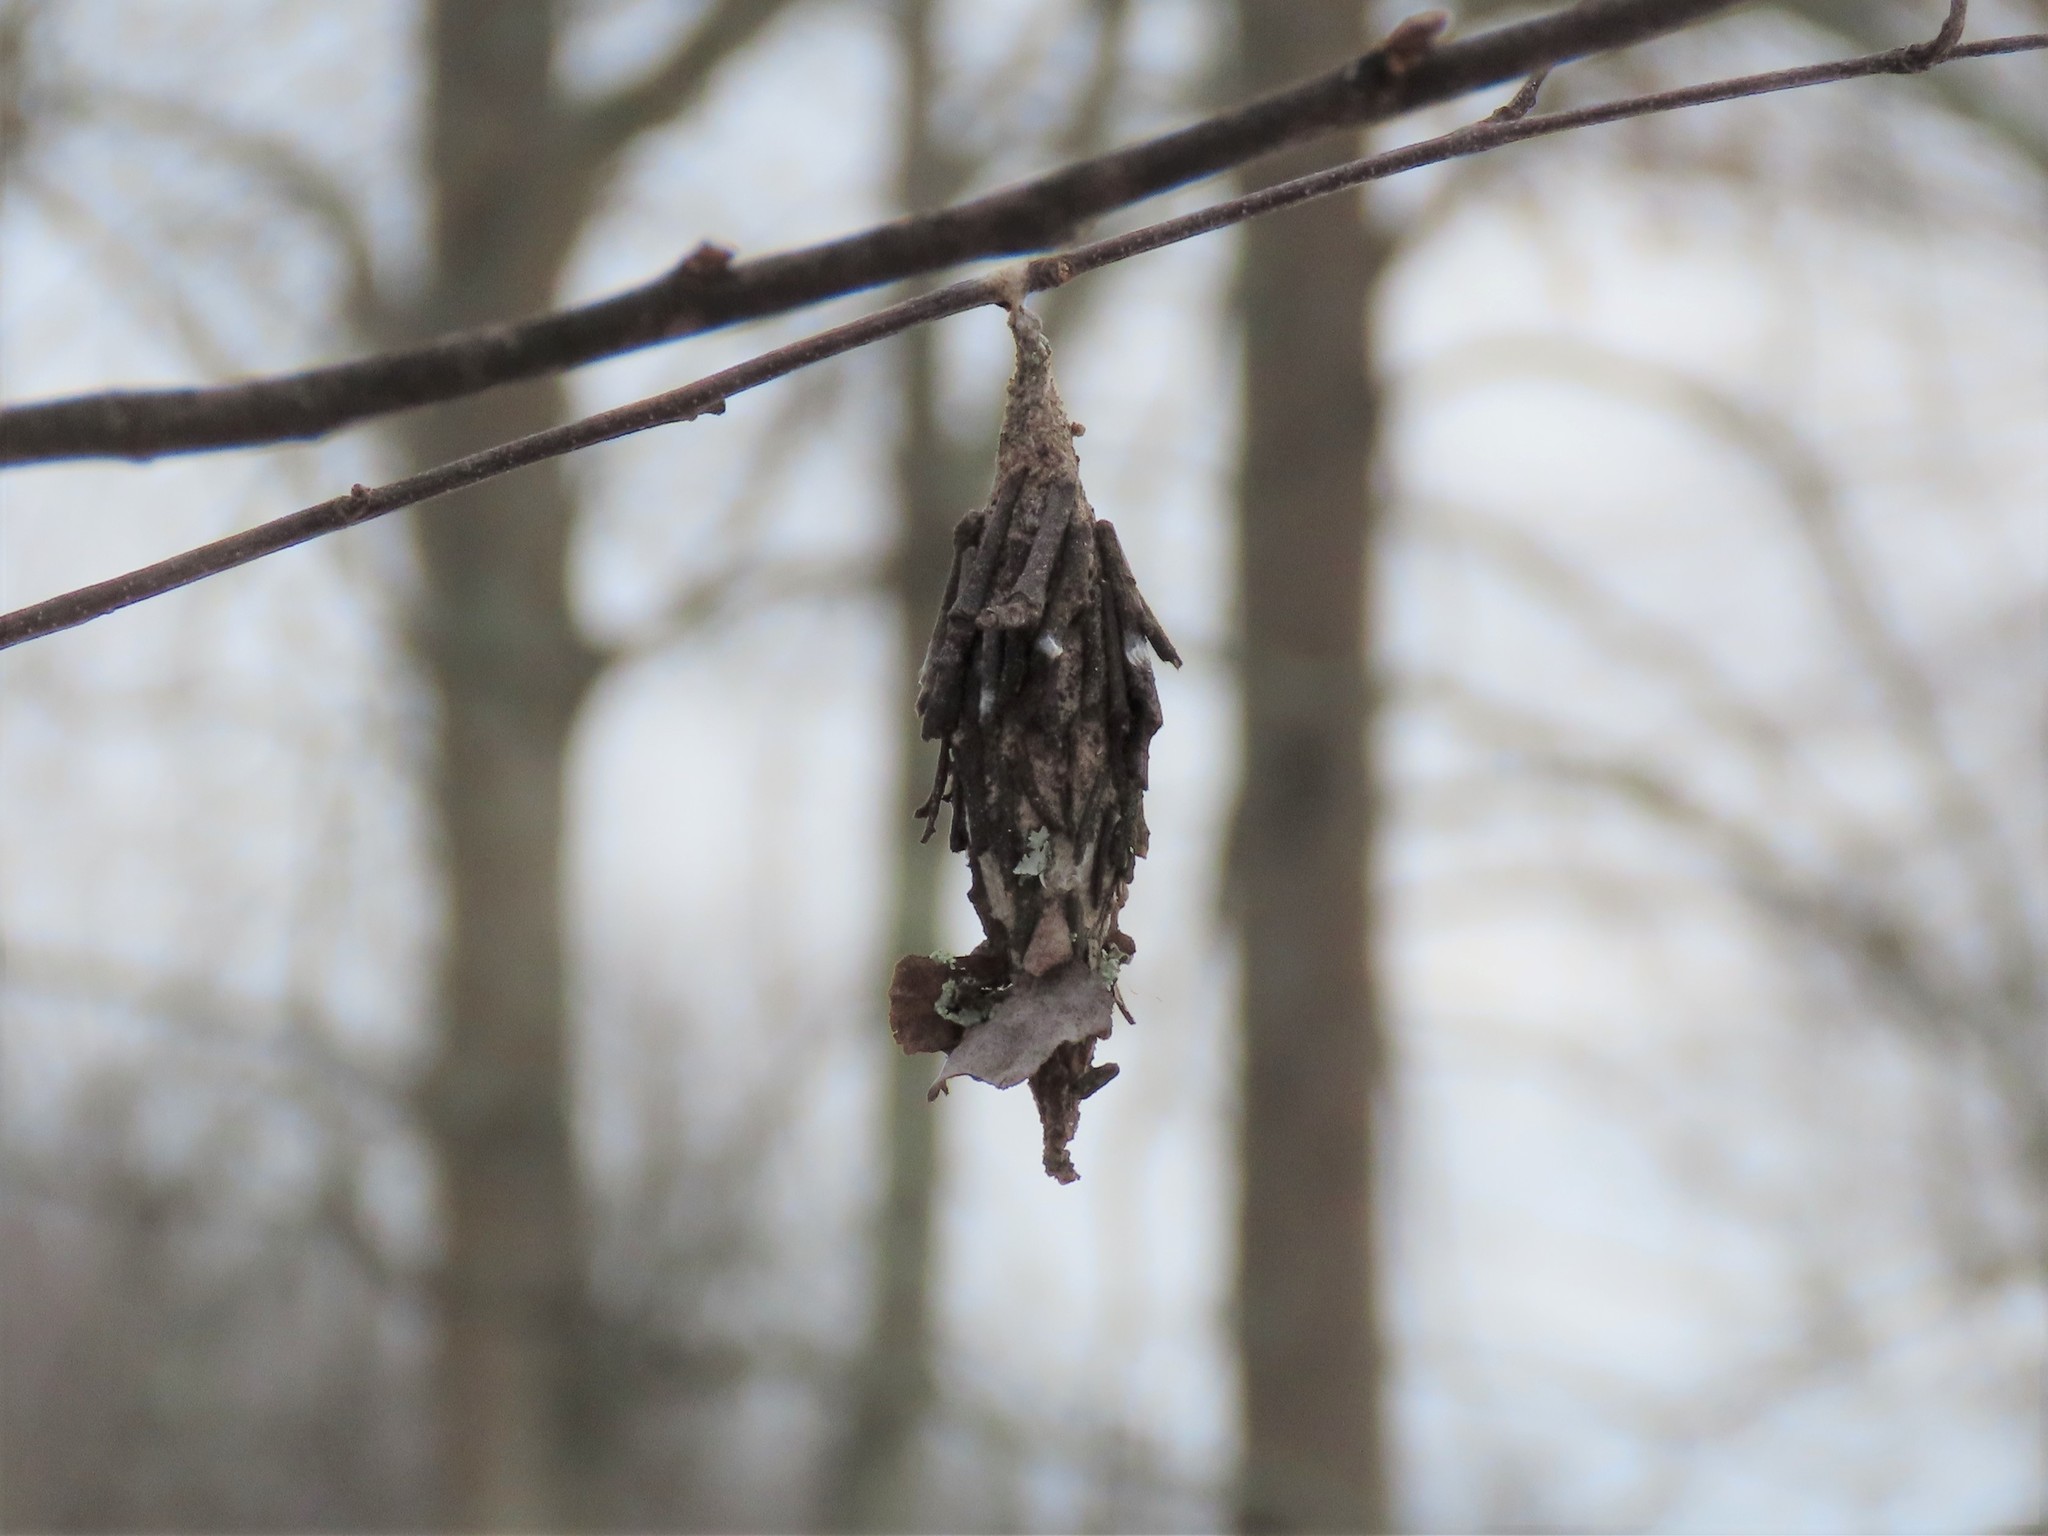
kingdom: Animalia
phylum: Arthropoda
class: Insecta
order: Lepidoptera
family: Psychidae
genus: Thyridopteryx
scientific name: Thyridopteryx ephemeraeformis
